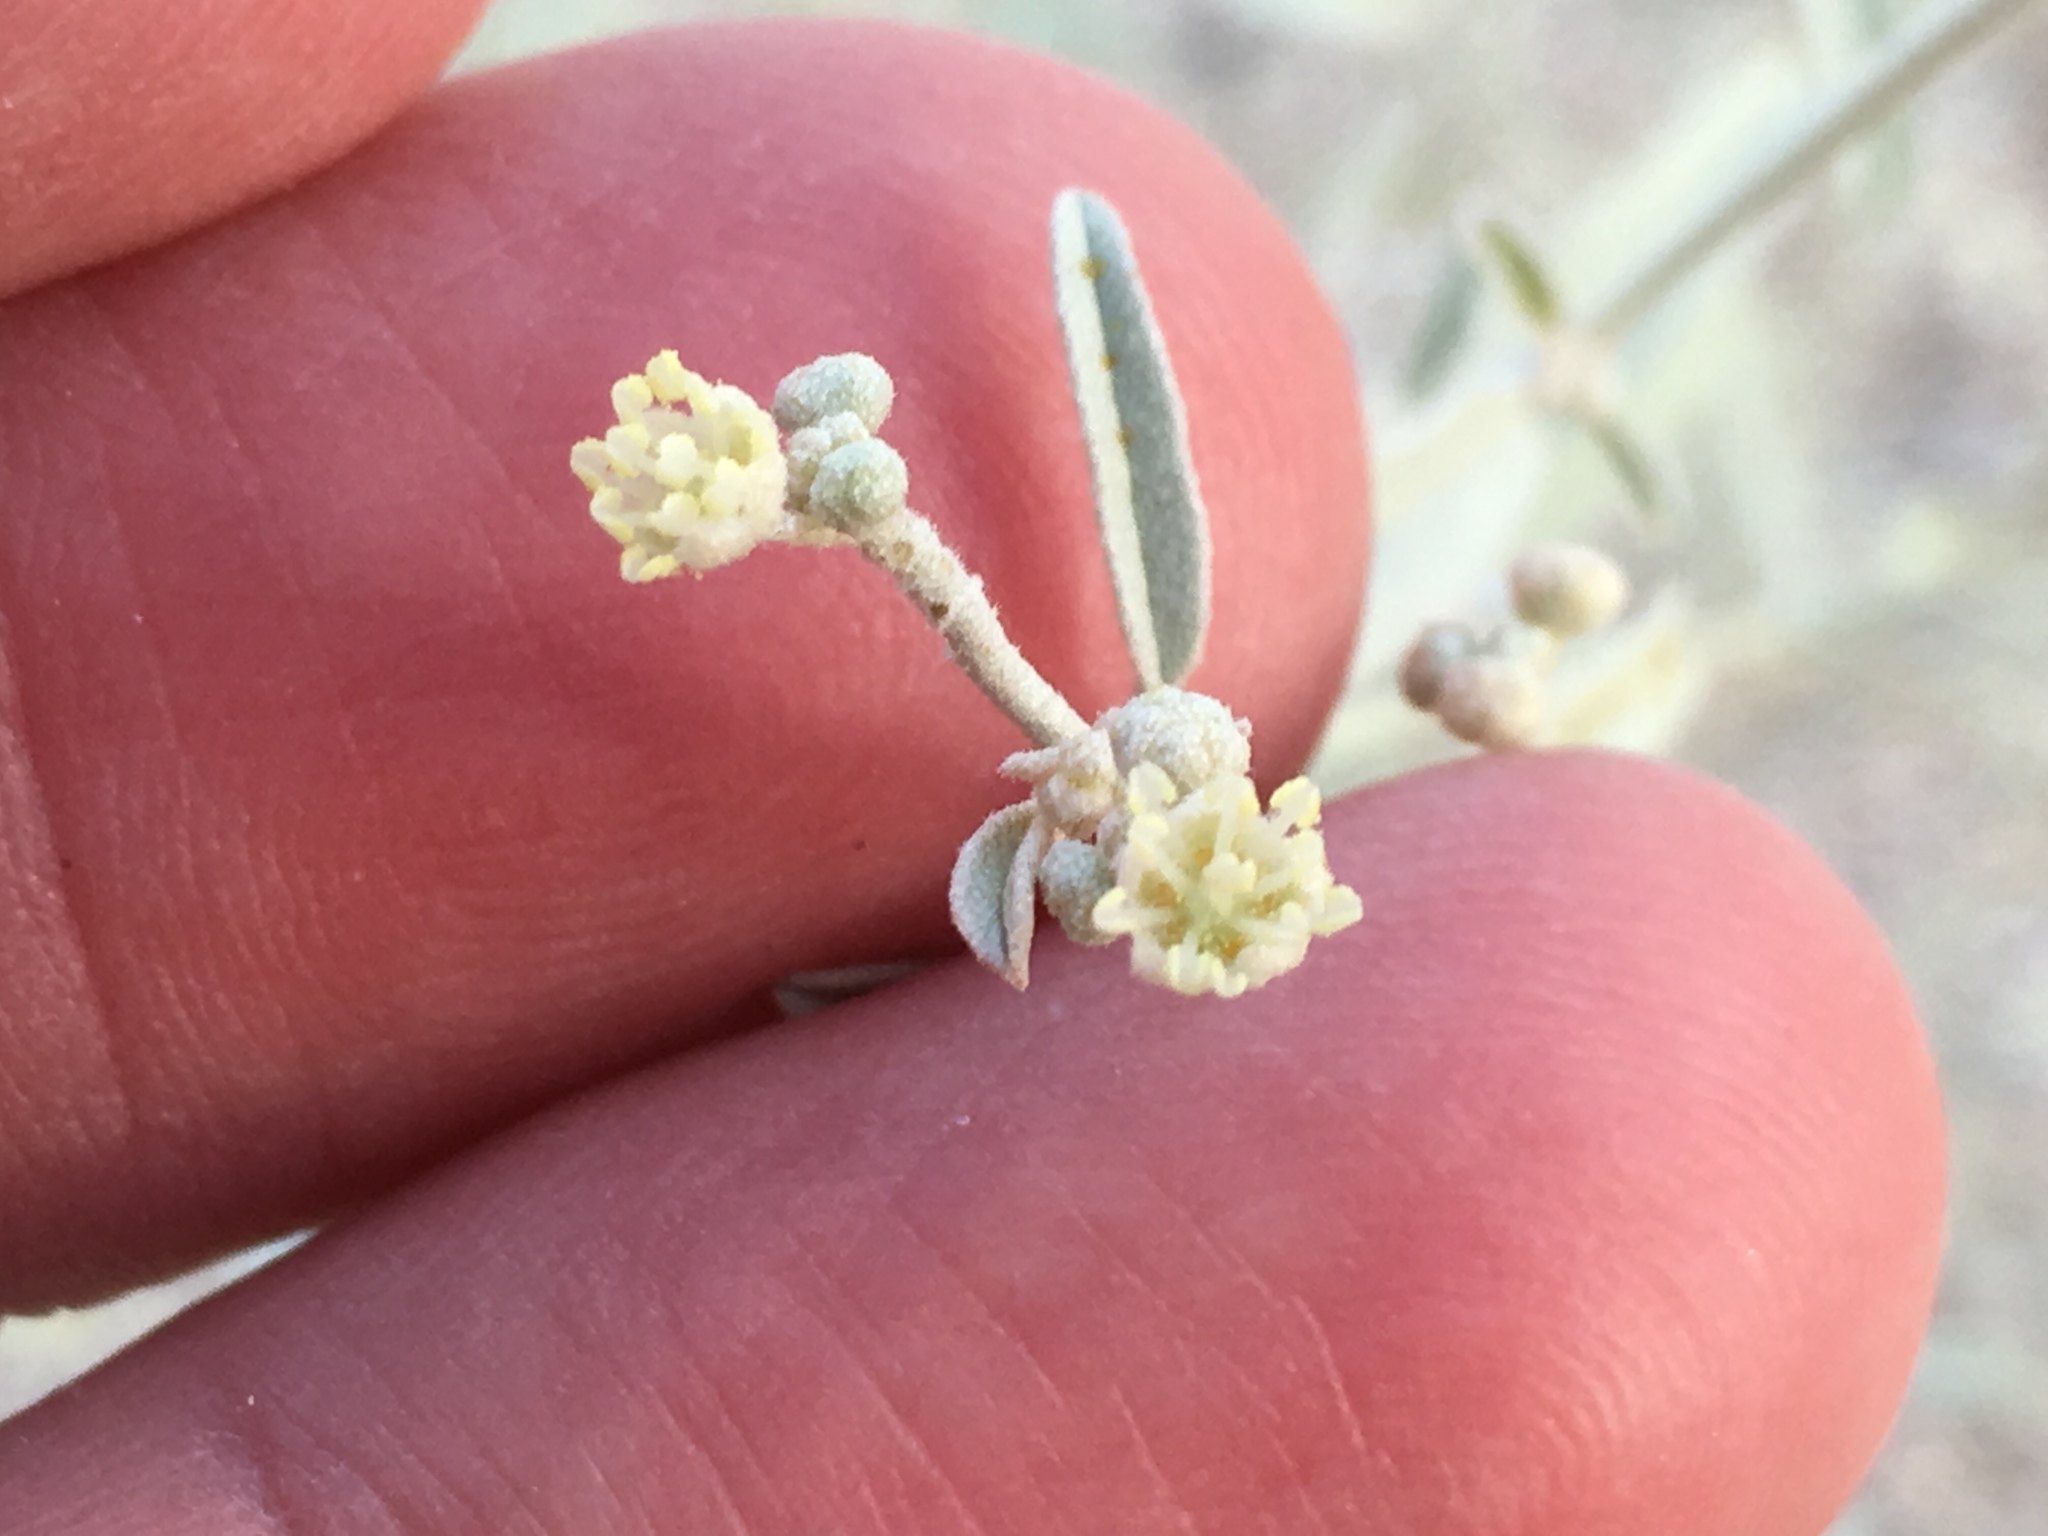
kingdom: Plantae
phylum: Tracheophyta
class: Magnoliopsida
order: Malpighiales
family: Euphorbiaceae
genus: Croton
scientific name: Croton californicus
